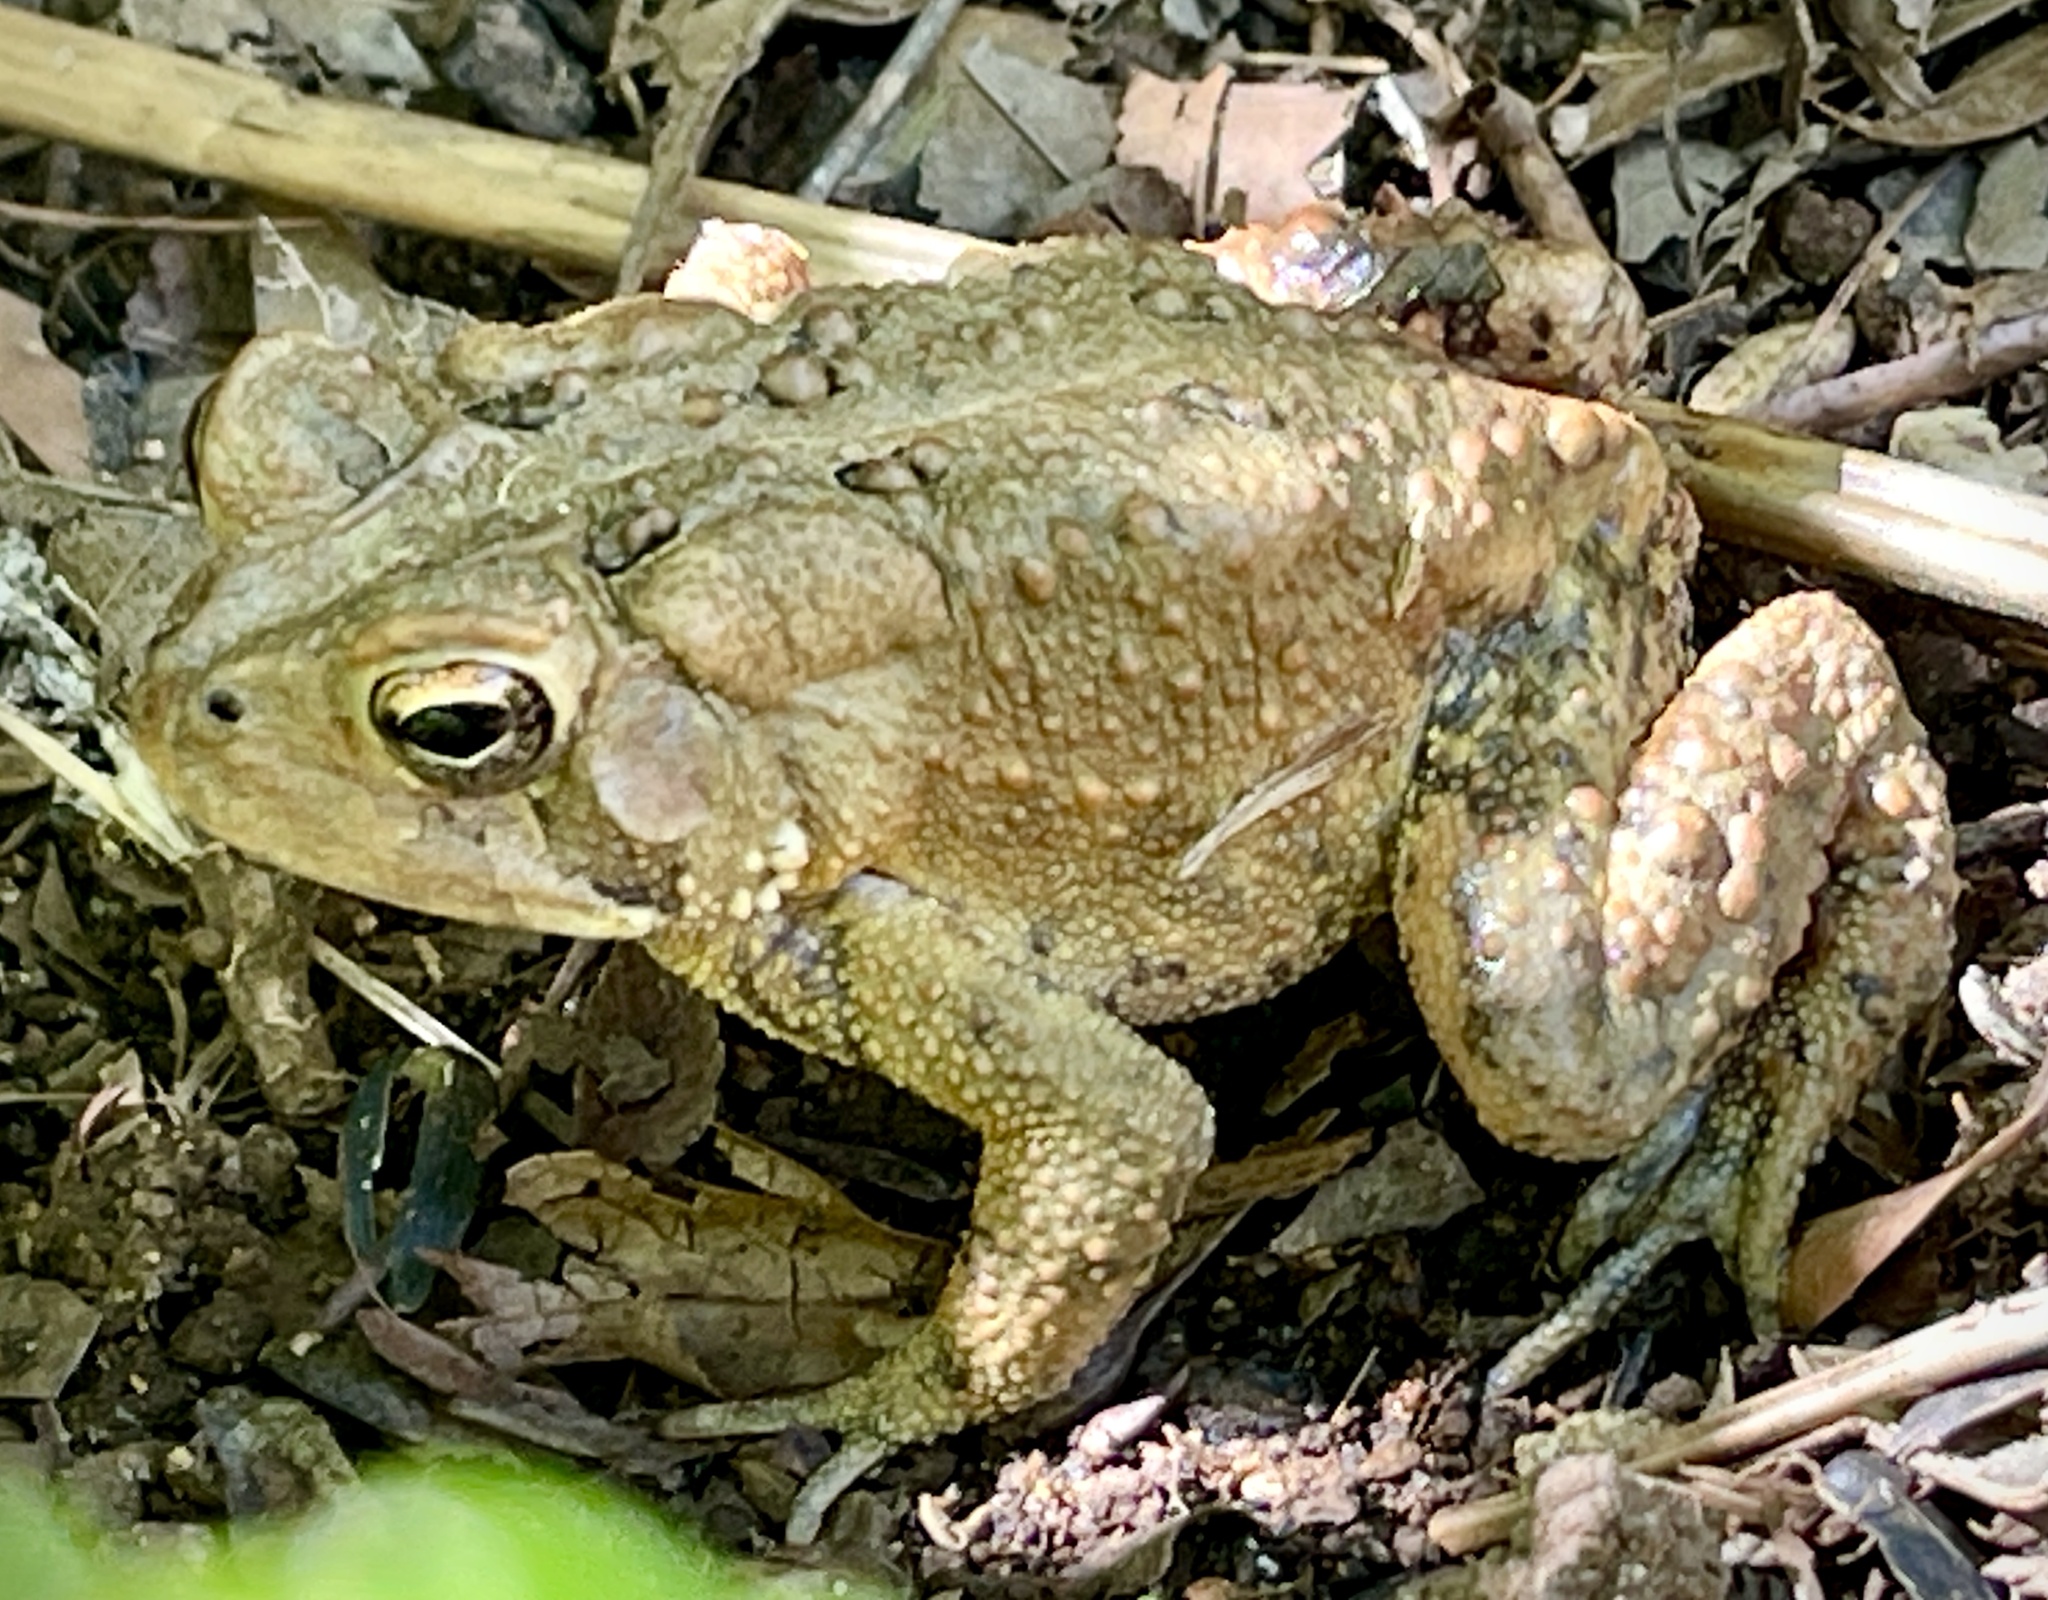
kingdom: Animalia
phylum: Chordata
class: Amphibia
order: Anura
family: Bufonidae
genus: Anaxyrus
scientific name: Anaxyrus americanus
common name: American toad
